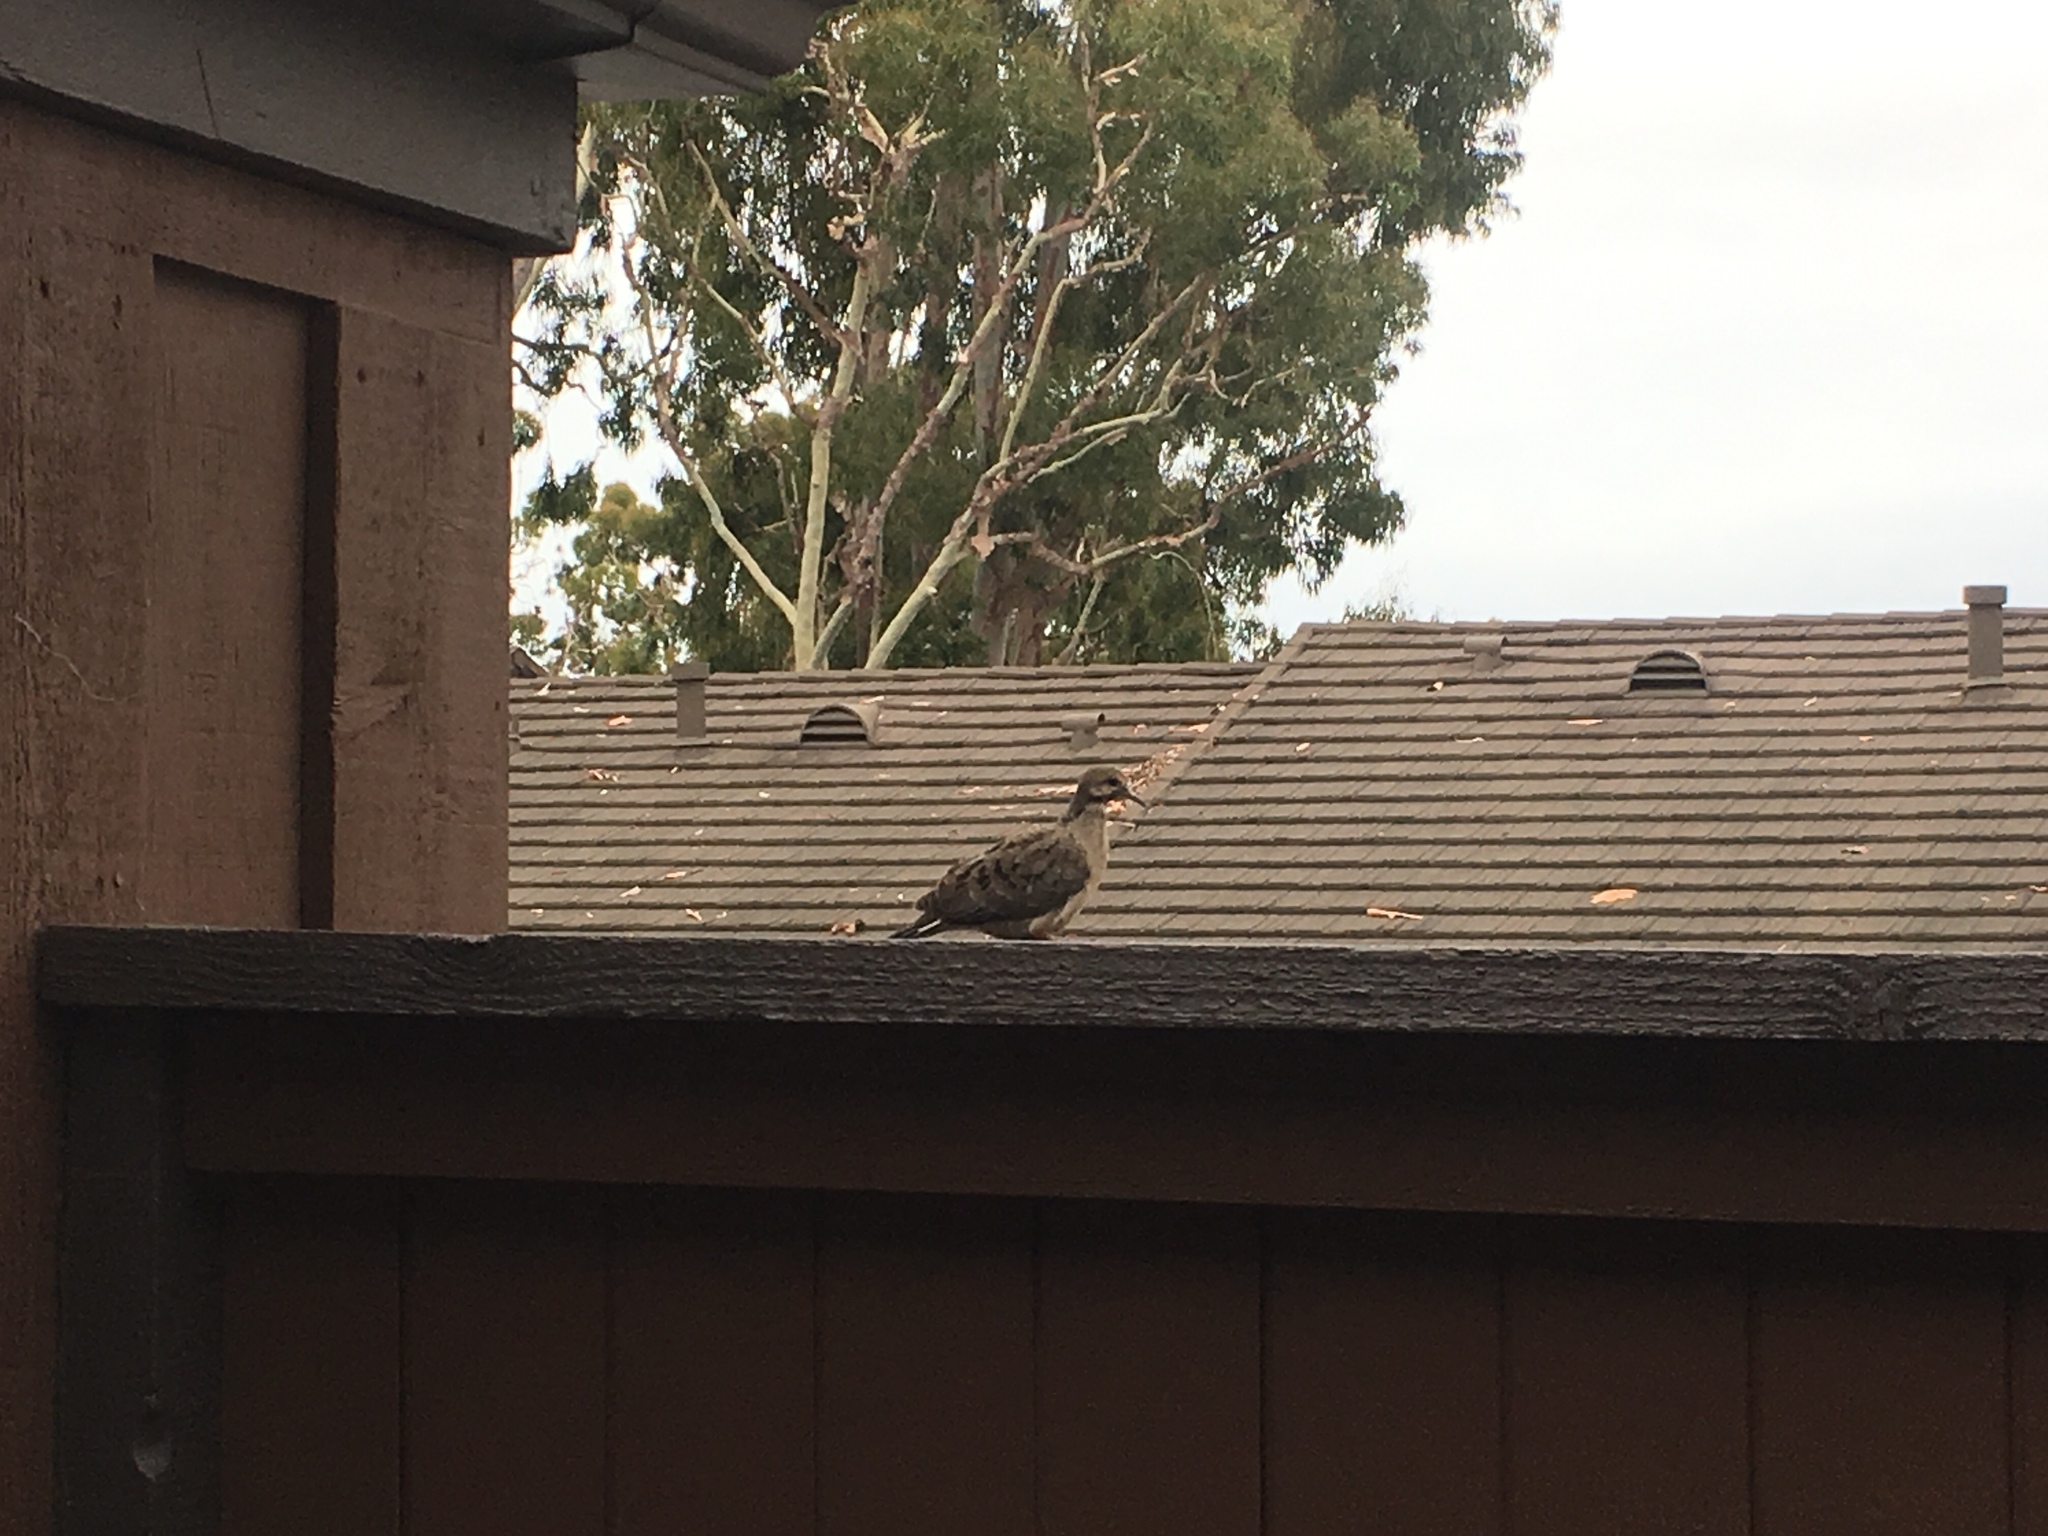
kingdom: Animalia
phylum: Chordata
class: Aves
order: Columbiformes
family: Columbidae
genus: Zenaida
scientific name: Zenaida macroura
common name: Mourning dove
